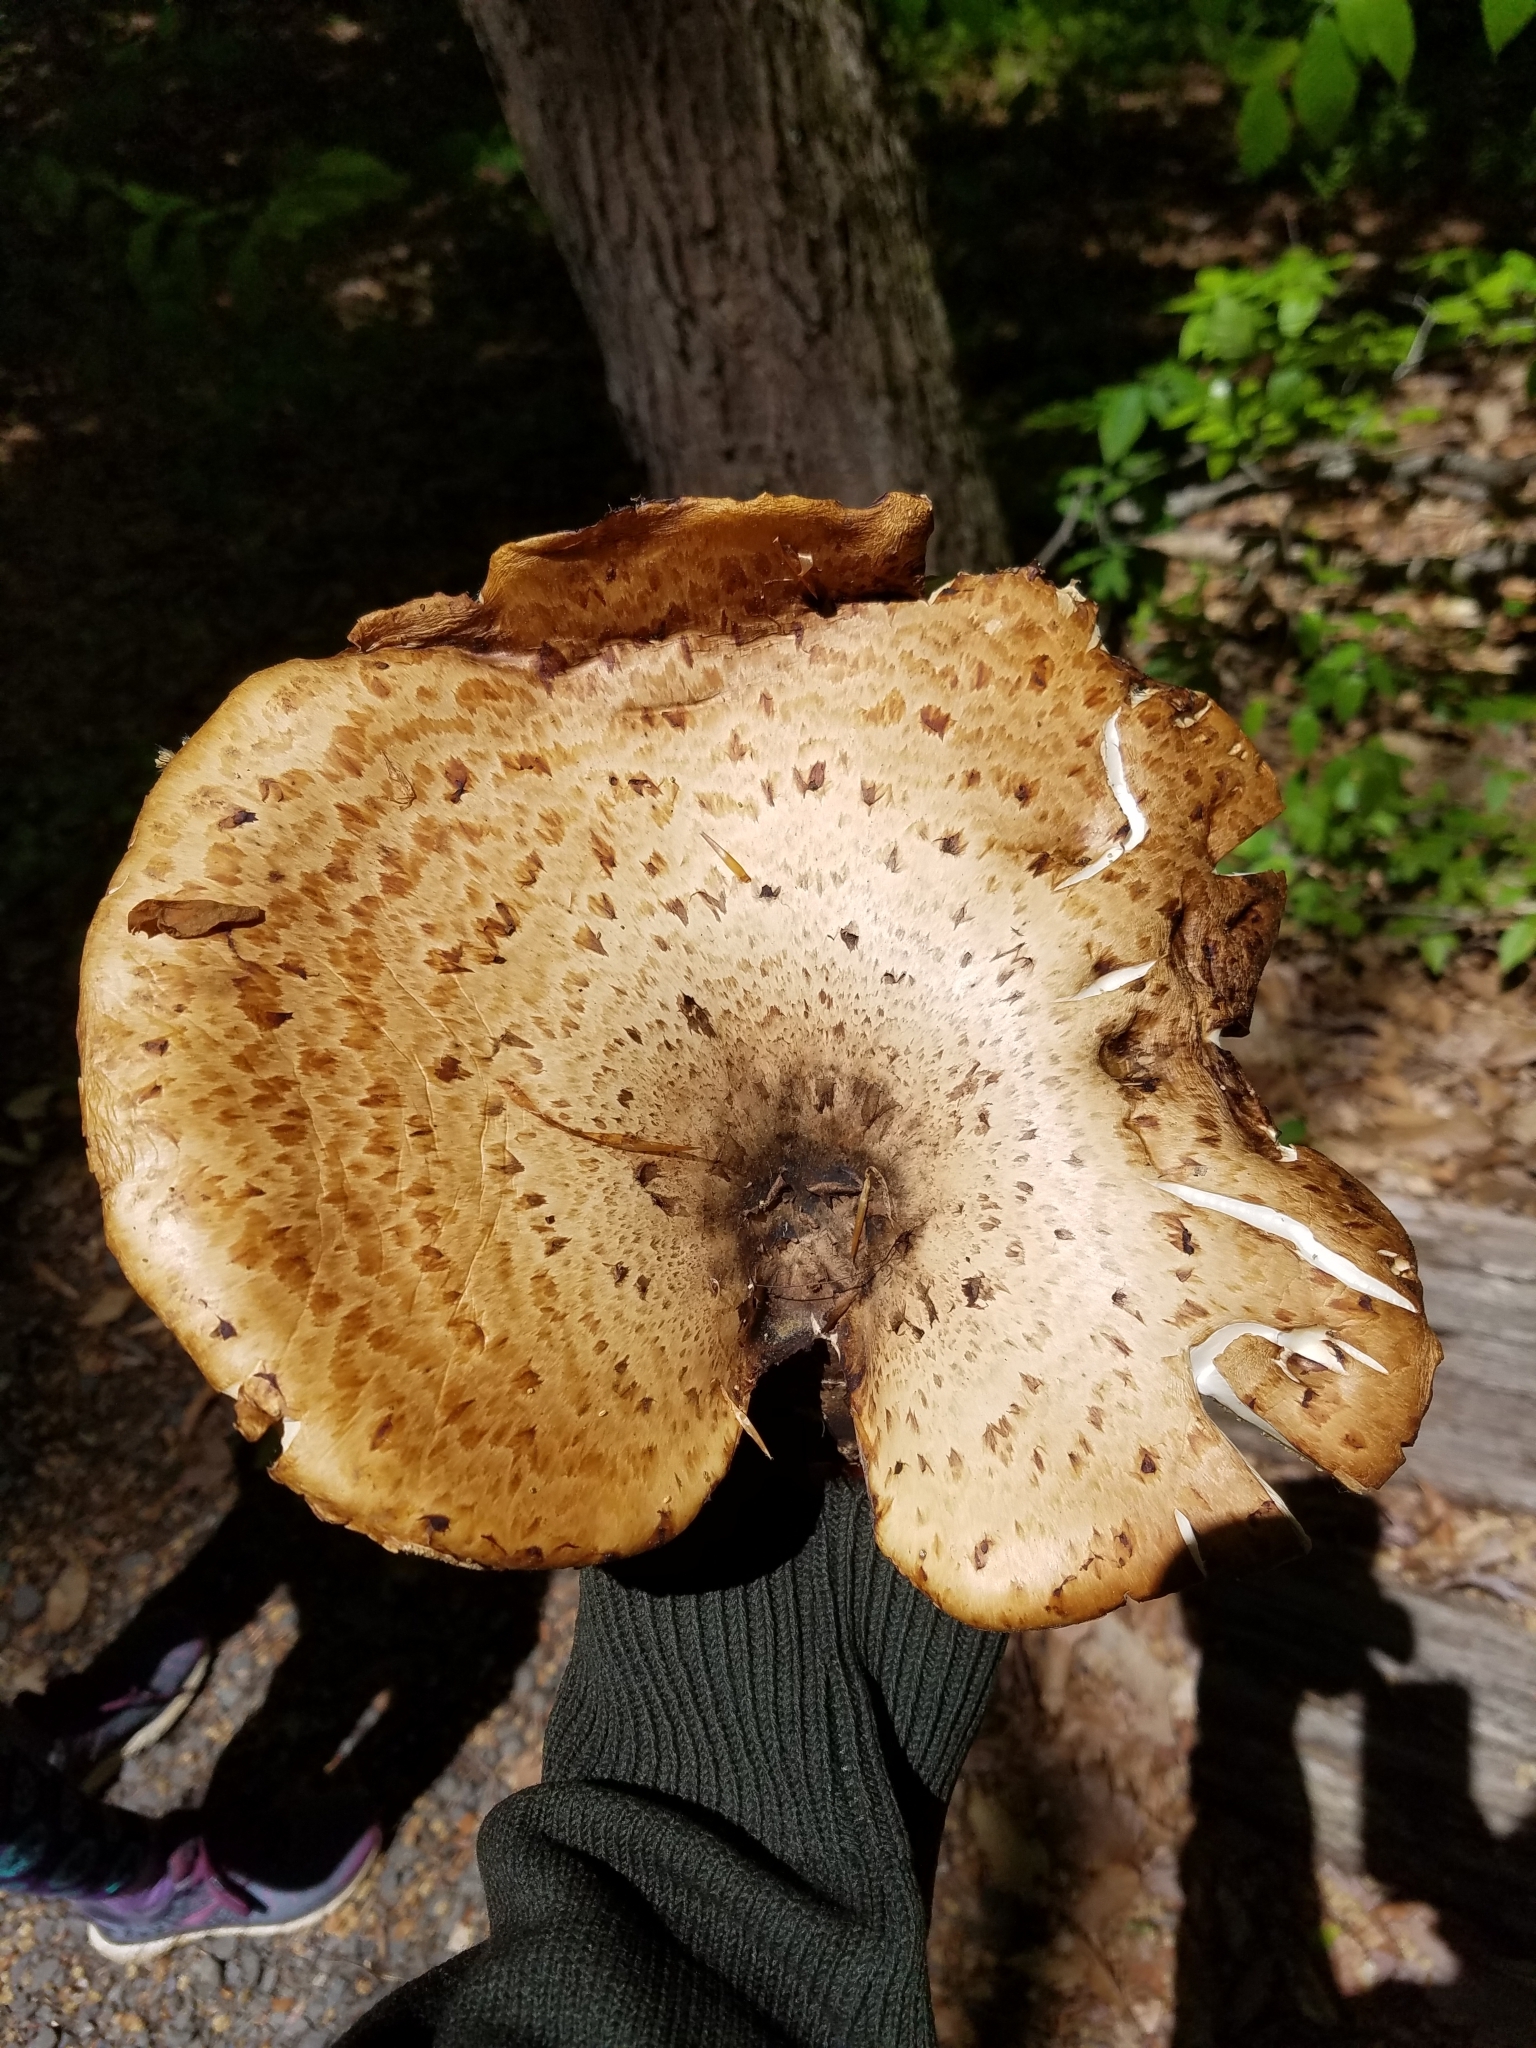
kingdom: Fungi
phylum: Basidiomycota
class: Agaricomycetes
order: Polyporales
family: Polyporaceae
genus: Cerioporus
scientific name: Cerioporus squamosus
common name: Dryad's saddle
